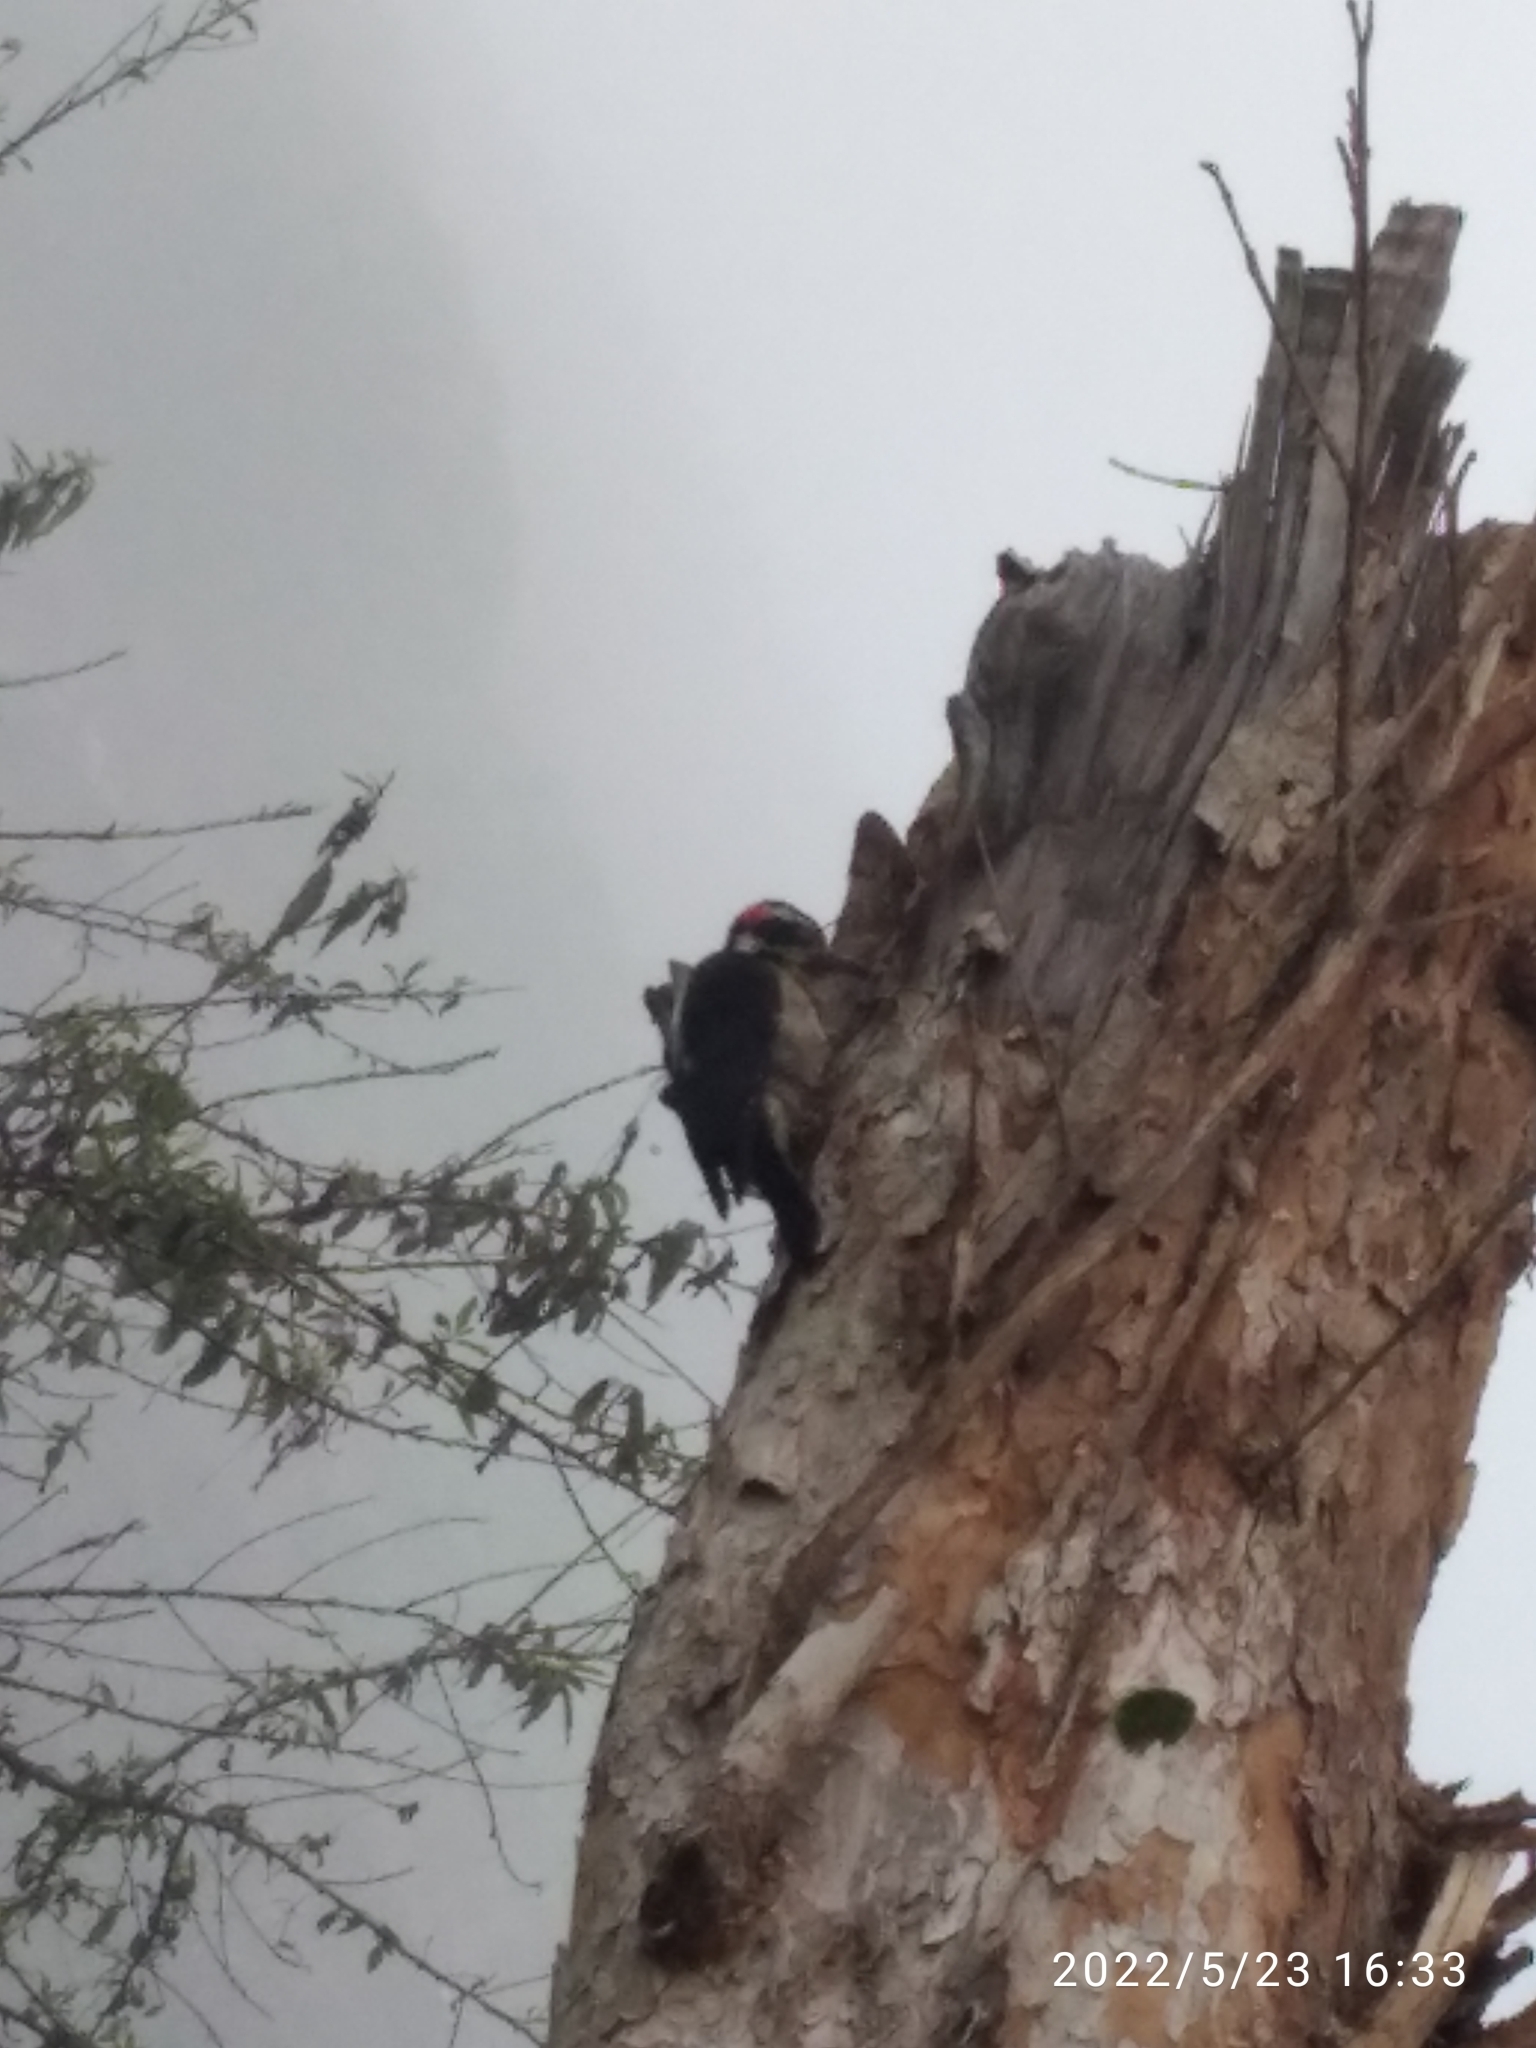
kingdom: Animalia
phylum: Chordata
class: Aves
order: Piciformes
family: Picidae
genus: Leuconotopicus
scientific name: Leuconotopicus villosus
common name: Hairy woodpecker
